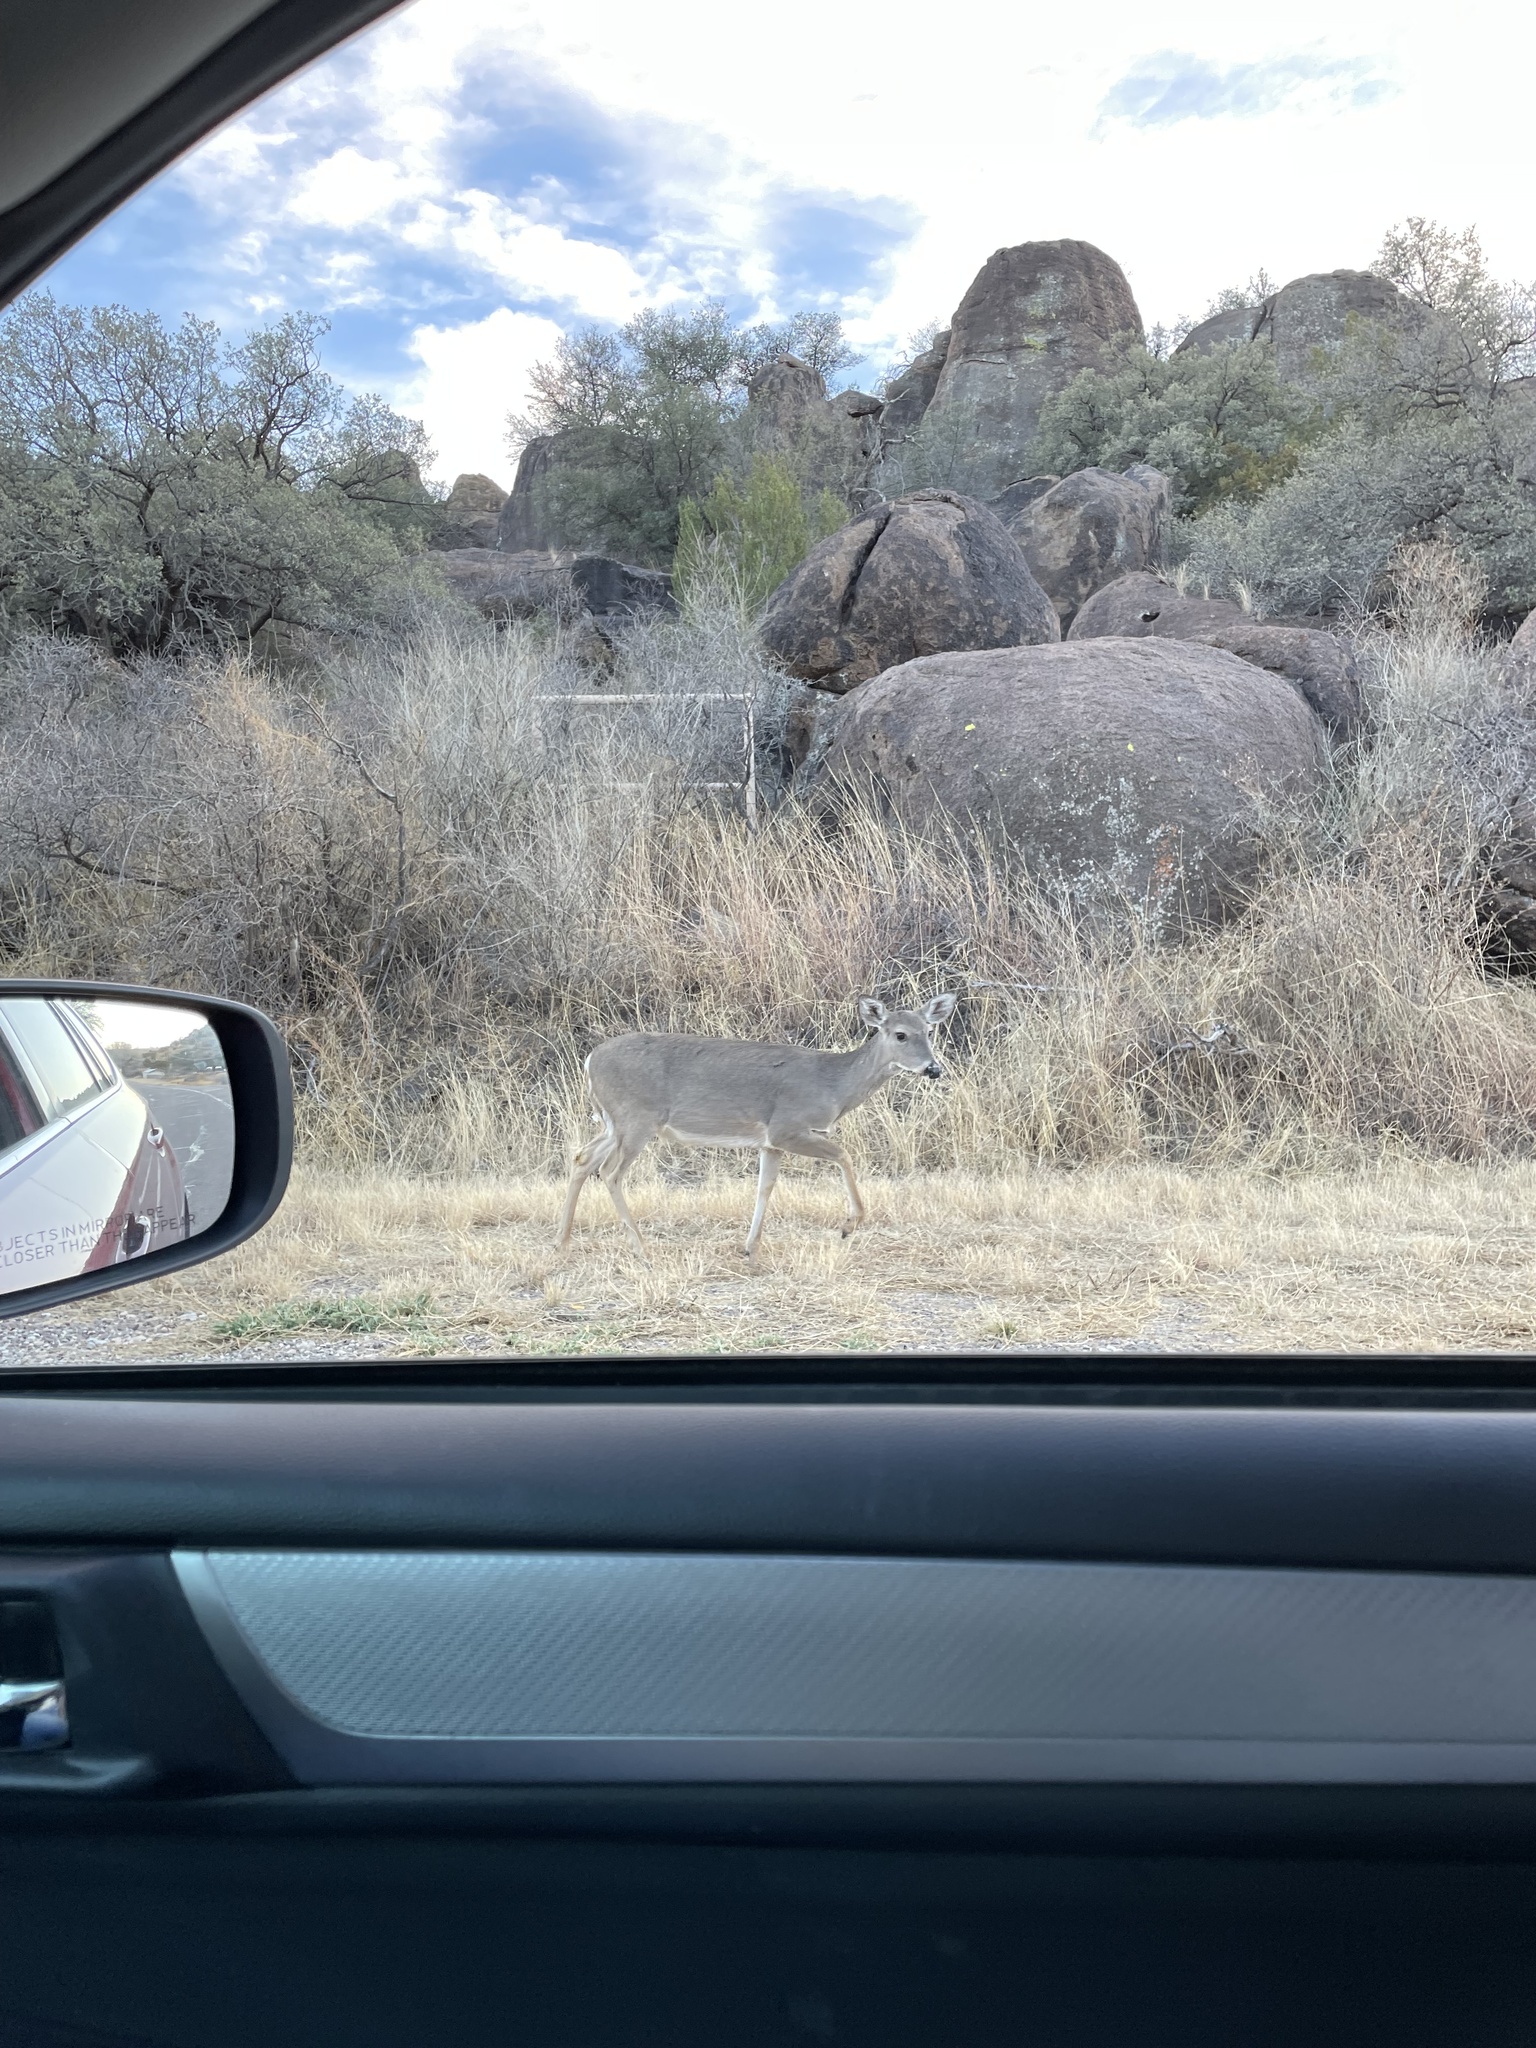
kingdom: Animalia
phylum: Chordata
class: Mammalia
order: Artiodactyla
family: Cervidae
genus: Odocoileus
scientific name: Odocoileus virginianus
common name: White-tailed deer
